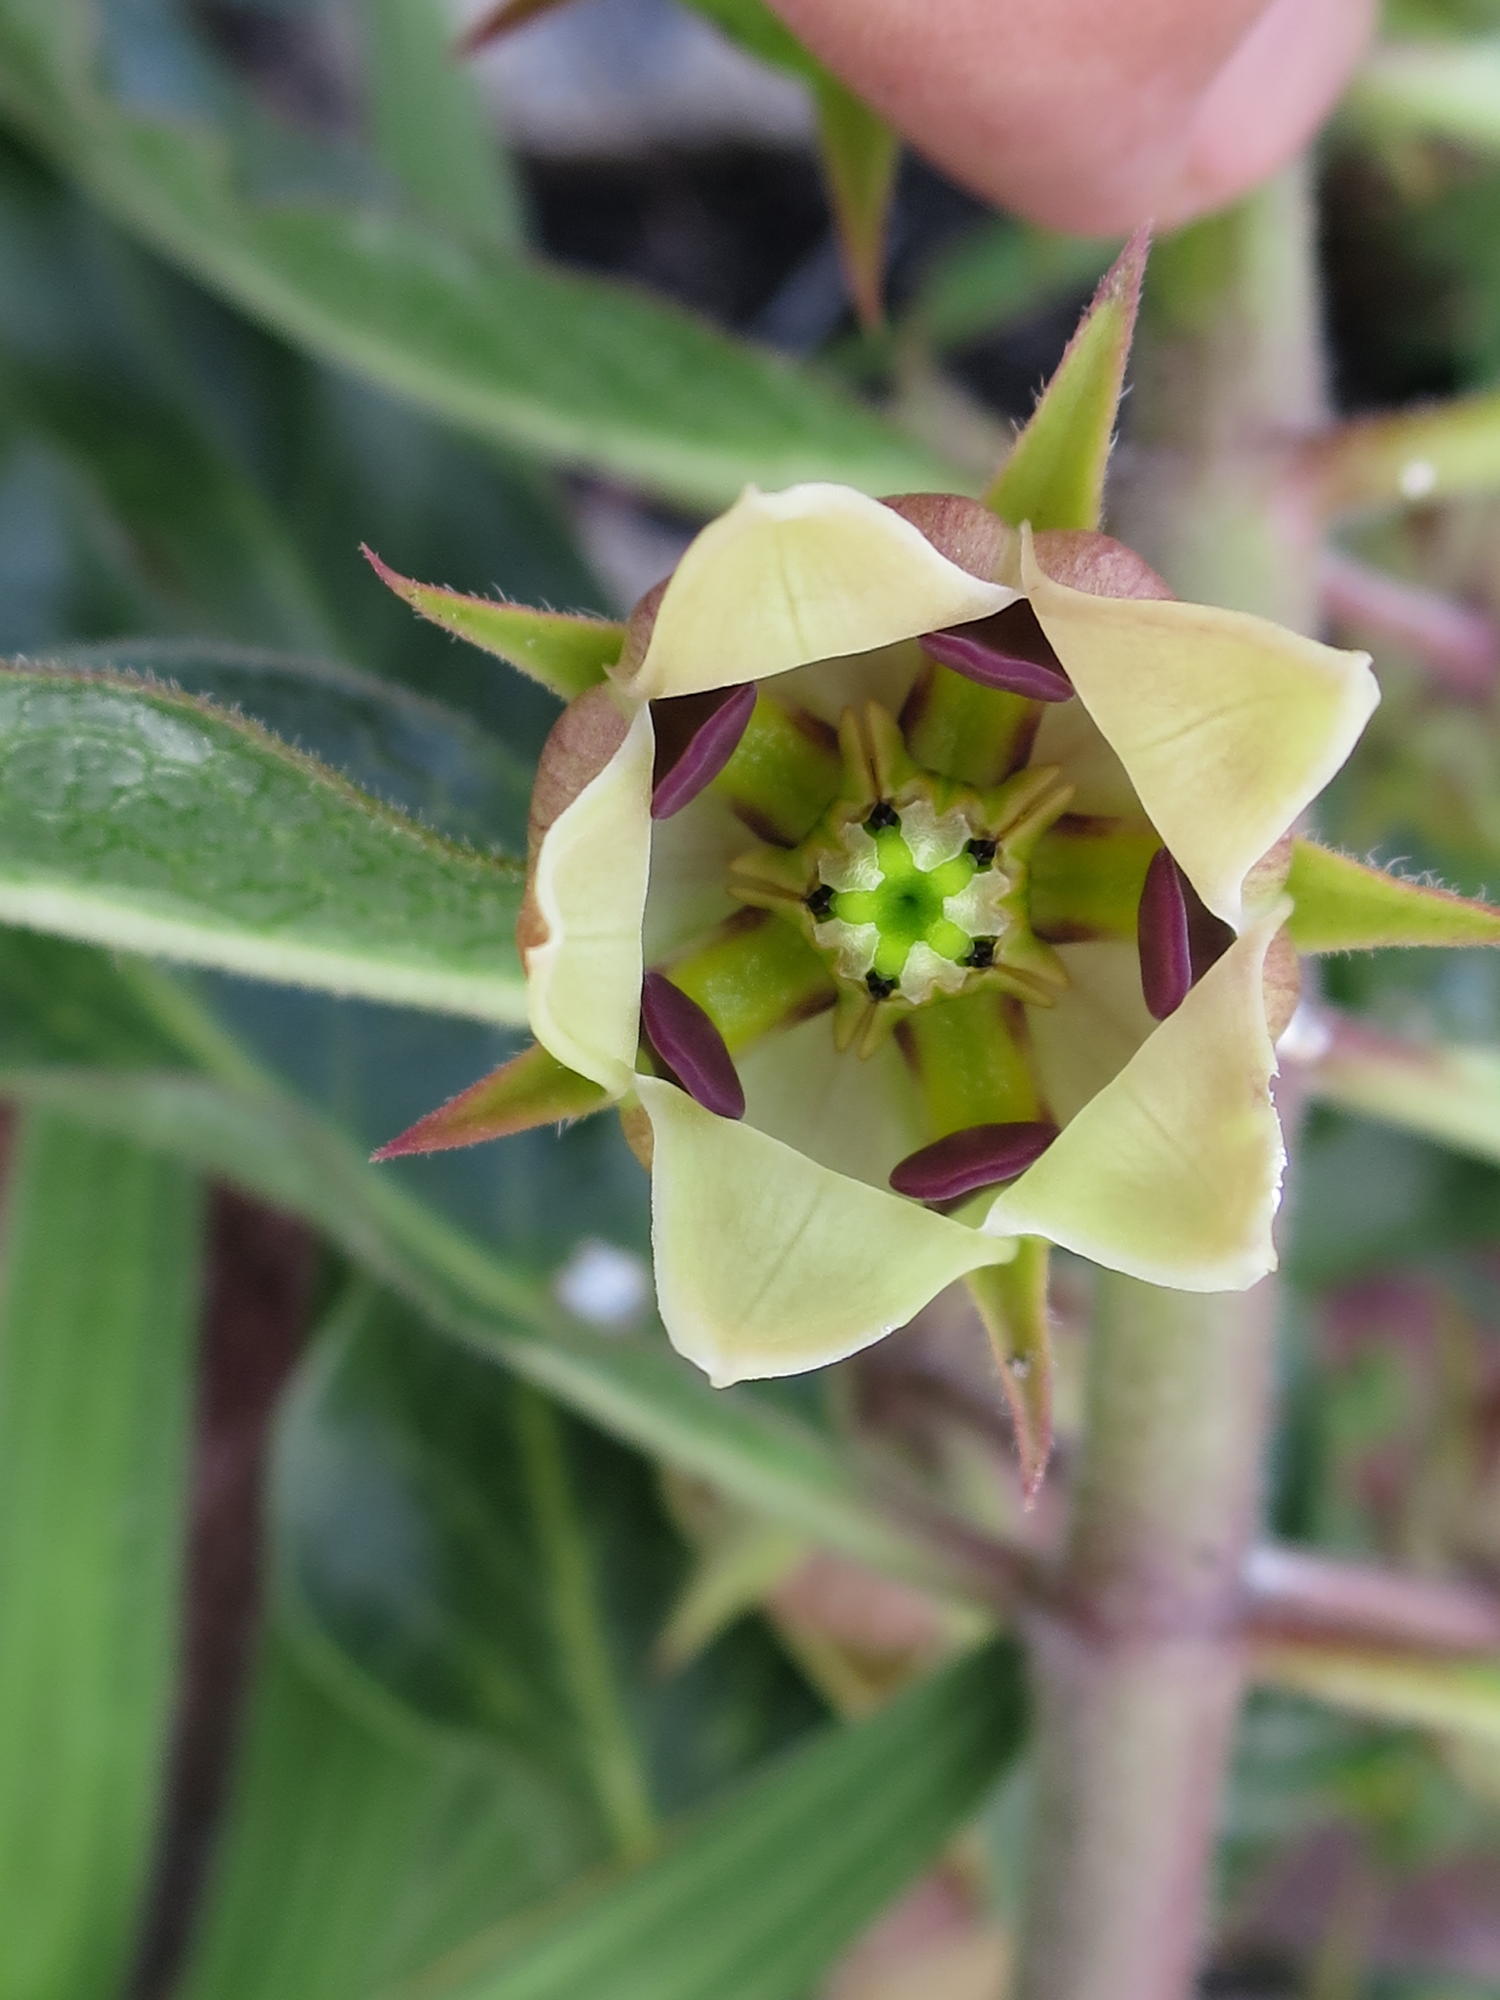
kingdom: Plantae
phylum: Tracheophyta
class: Magnoliopsida
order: Gentianales
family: Apocynaceae
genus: Pachycarpus
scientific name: Pachycarpus dealbatus
